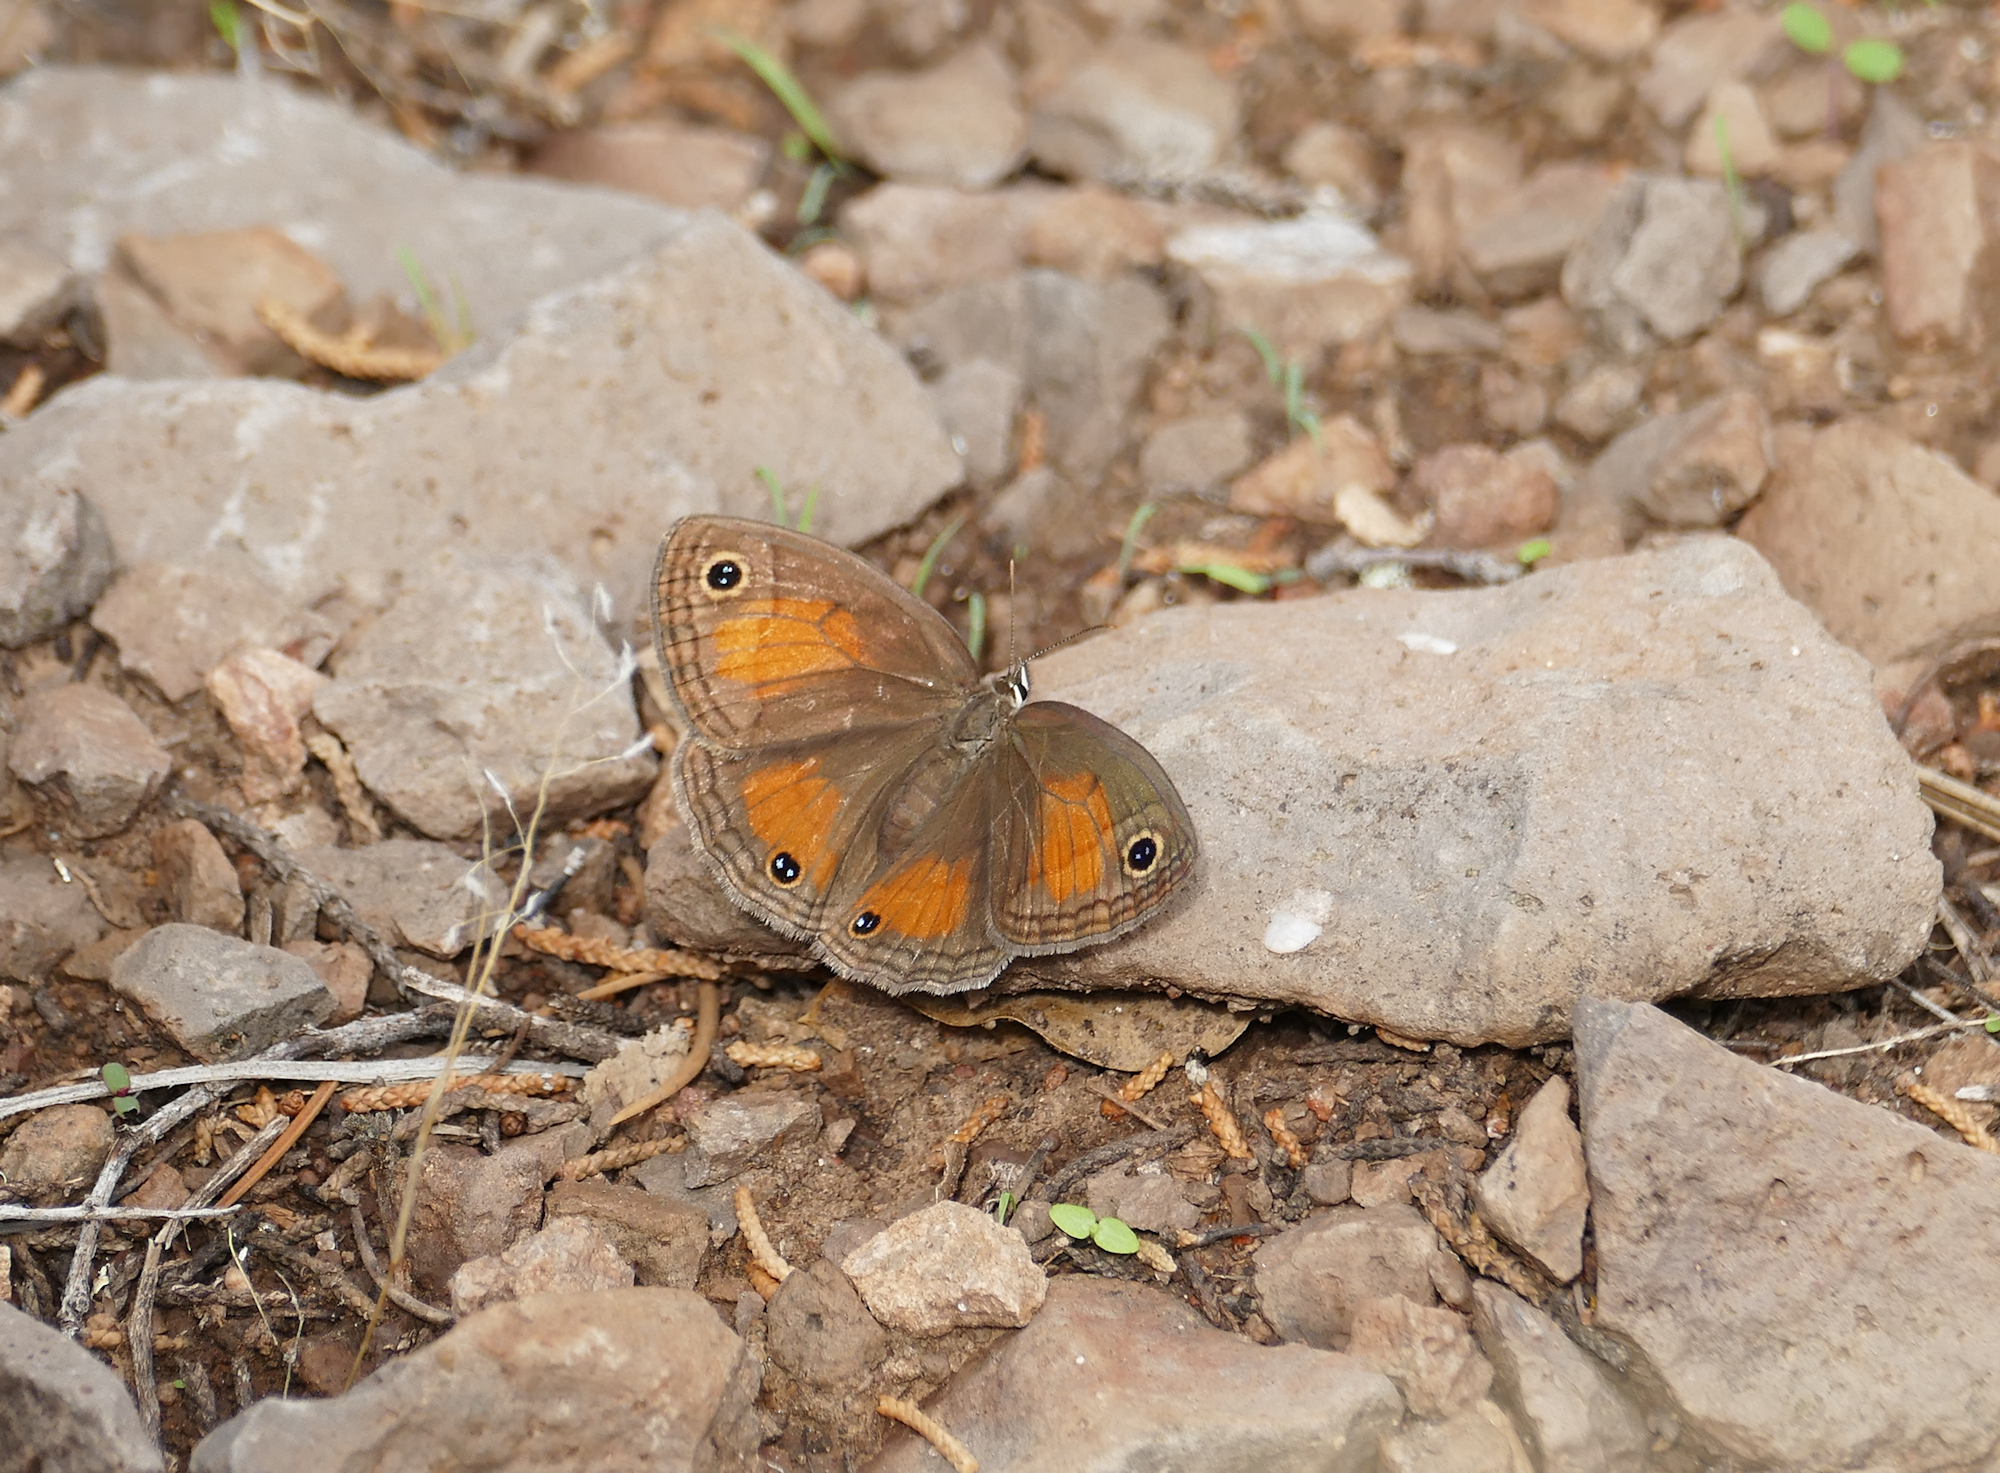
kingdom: Animalia
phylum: Arthropoda
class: Insecta
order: Lepidoptera
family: Nymphalidae
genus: Euptychia
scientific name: Euptychia
